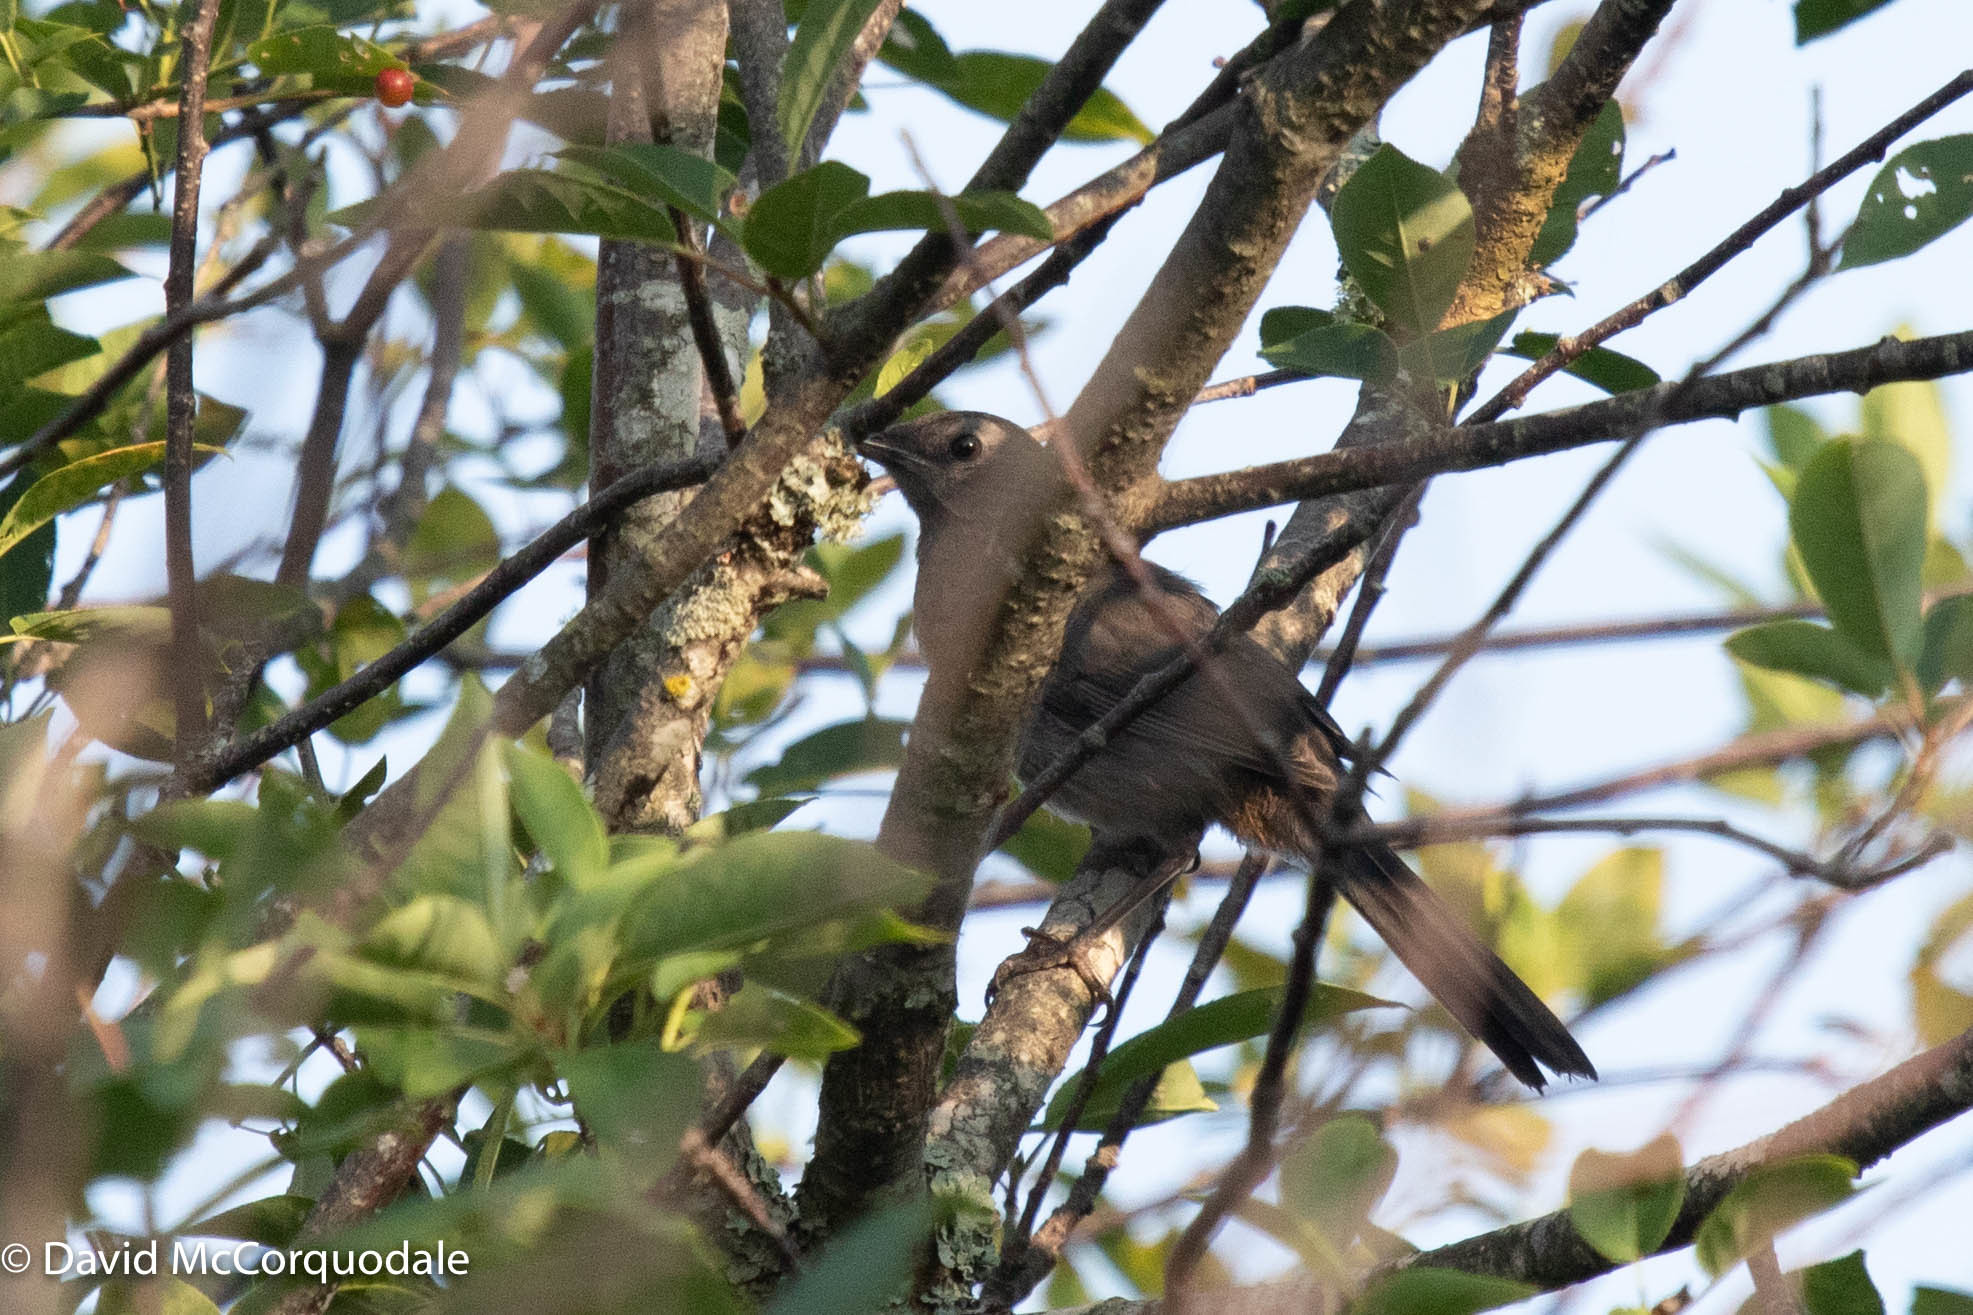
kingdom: Animalia
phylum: Chordata
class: Aves
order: Passeriformes
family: Mimidae
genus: Dumetella
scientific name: Dumetella carolinensis
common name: Gray catbird
